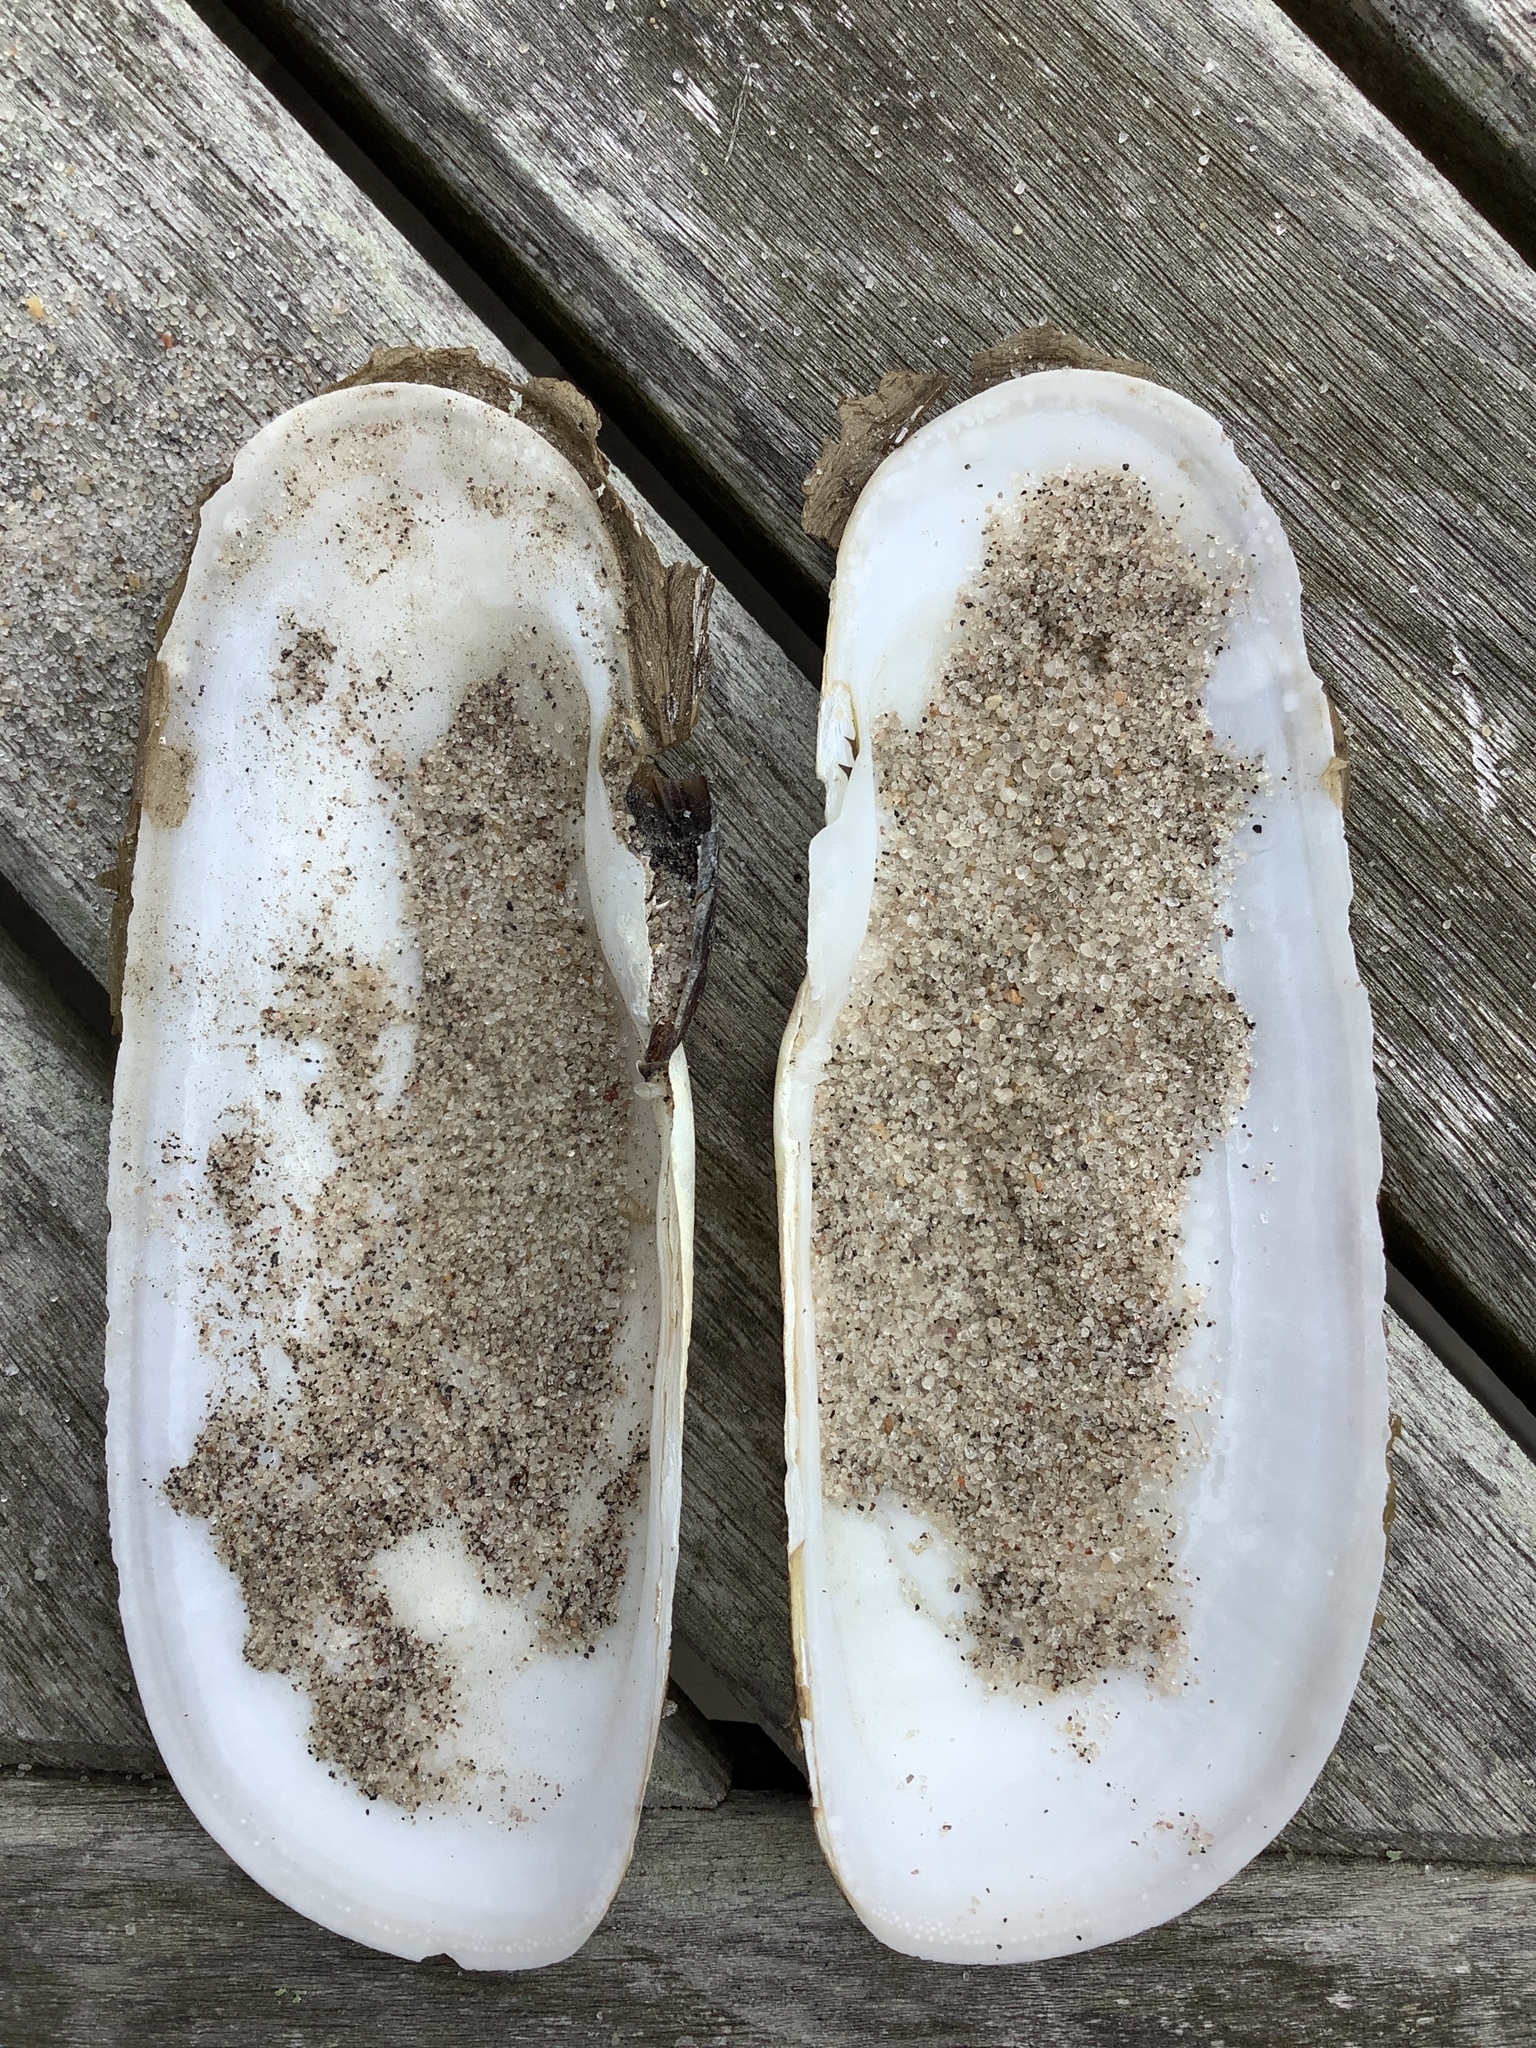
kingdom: Animalia
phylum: Mollusca
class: Bivalvia
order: Cardiida
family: Solecurtidae
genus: Tagelus
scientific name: Tagelus plebeius
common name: Stout tagelus
